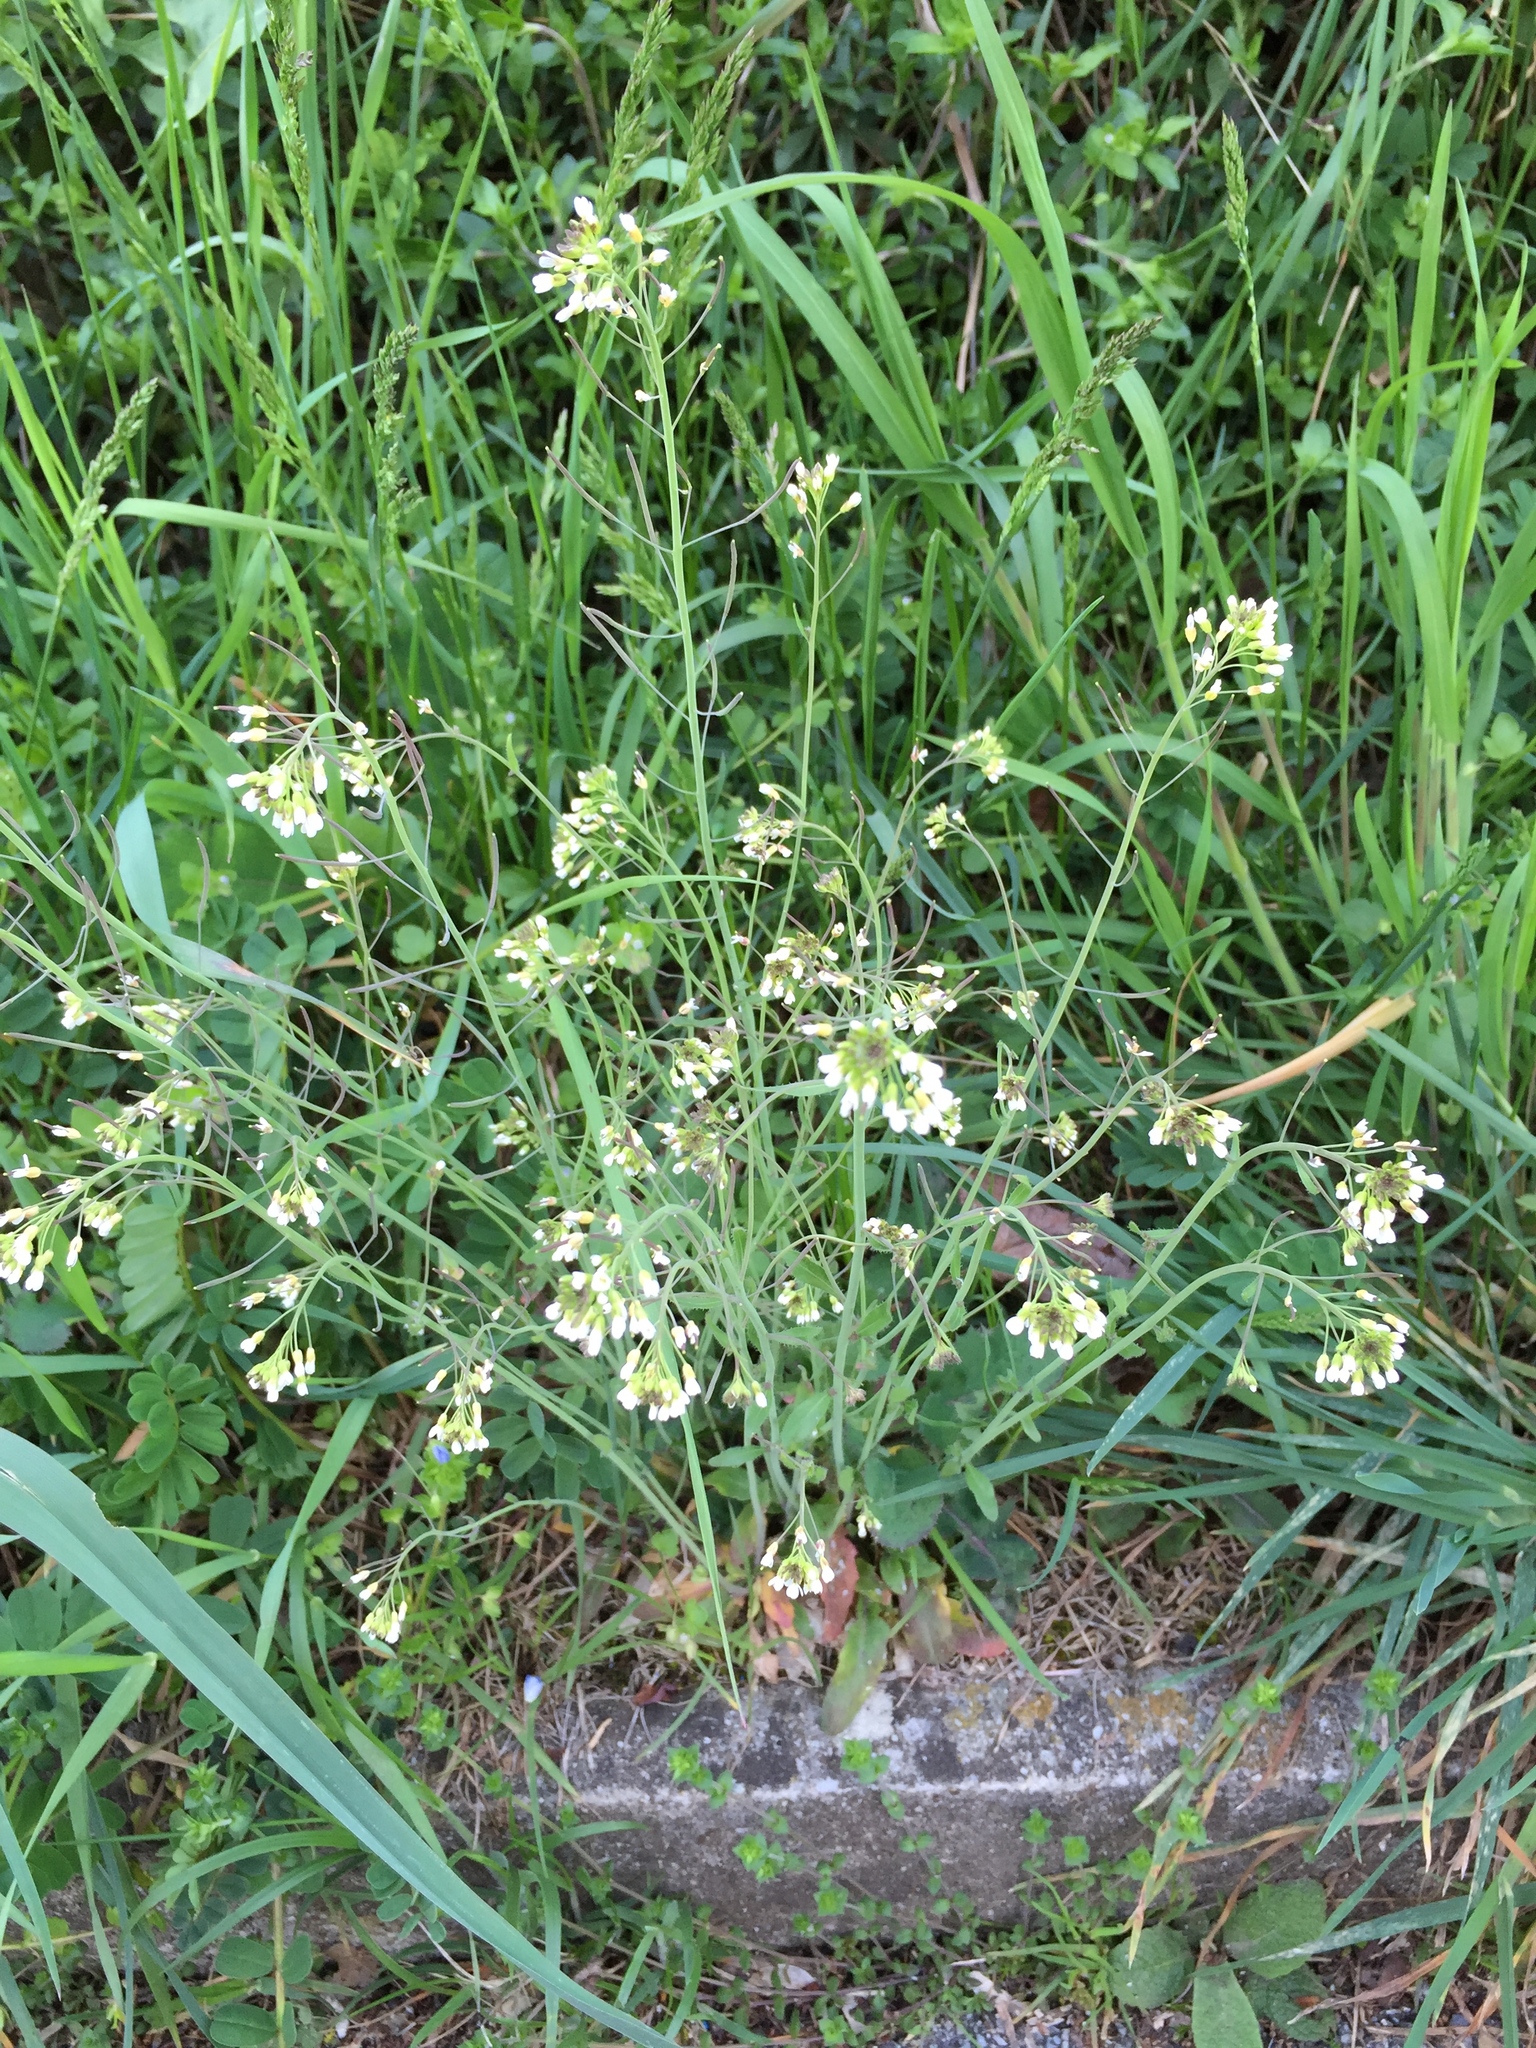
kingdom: Plantae
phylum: Tracheophyta
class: Magnoliopsida
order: Brassicales
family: Brassicaceae
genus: Arabidopsis
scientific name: Arabidopsis thaliana
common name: Thale cress
